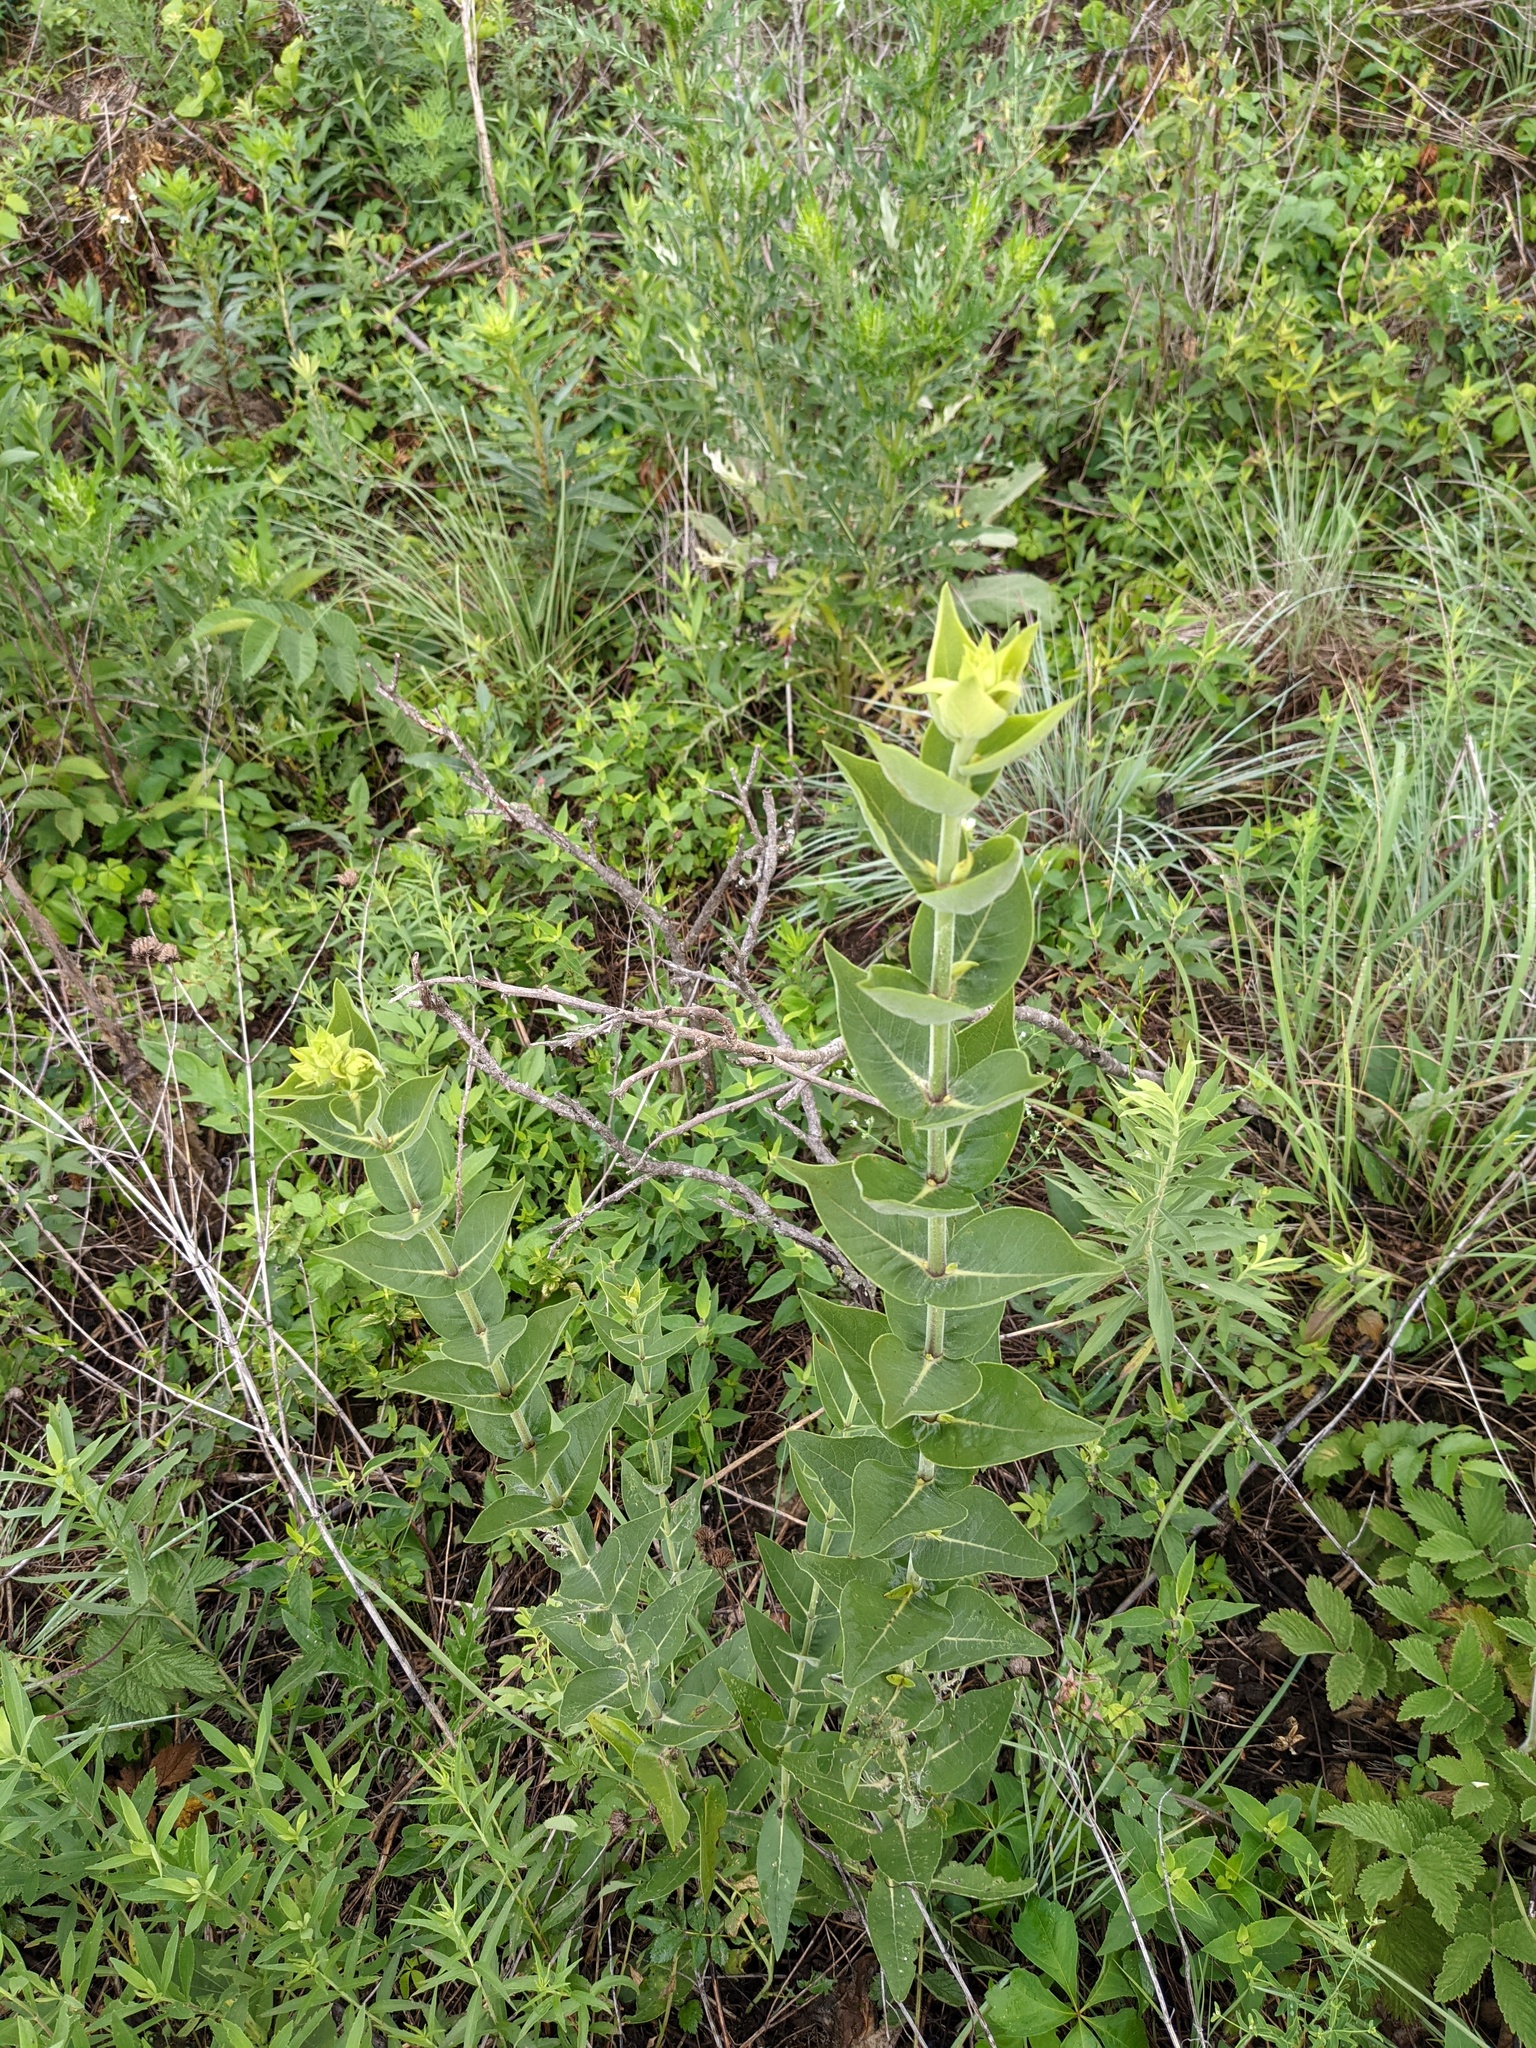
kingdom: Plantae
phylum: Tracheophyta
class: Magnoliopsida
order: Asterales
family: Asteraceae
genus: Silphium
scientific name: Silphium integrifolium
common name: Whole-leaf rosinweed
